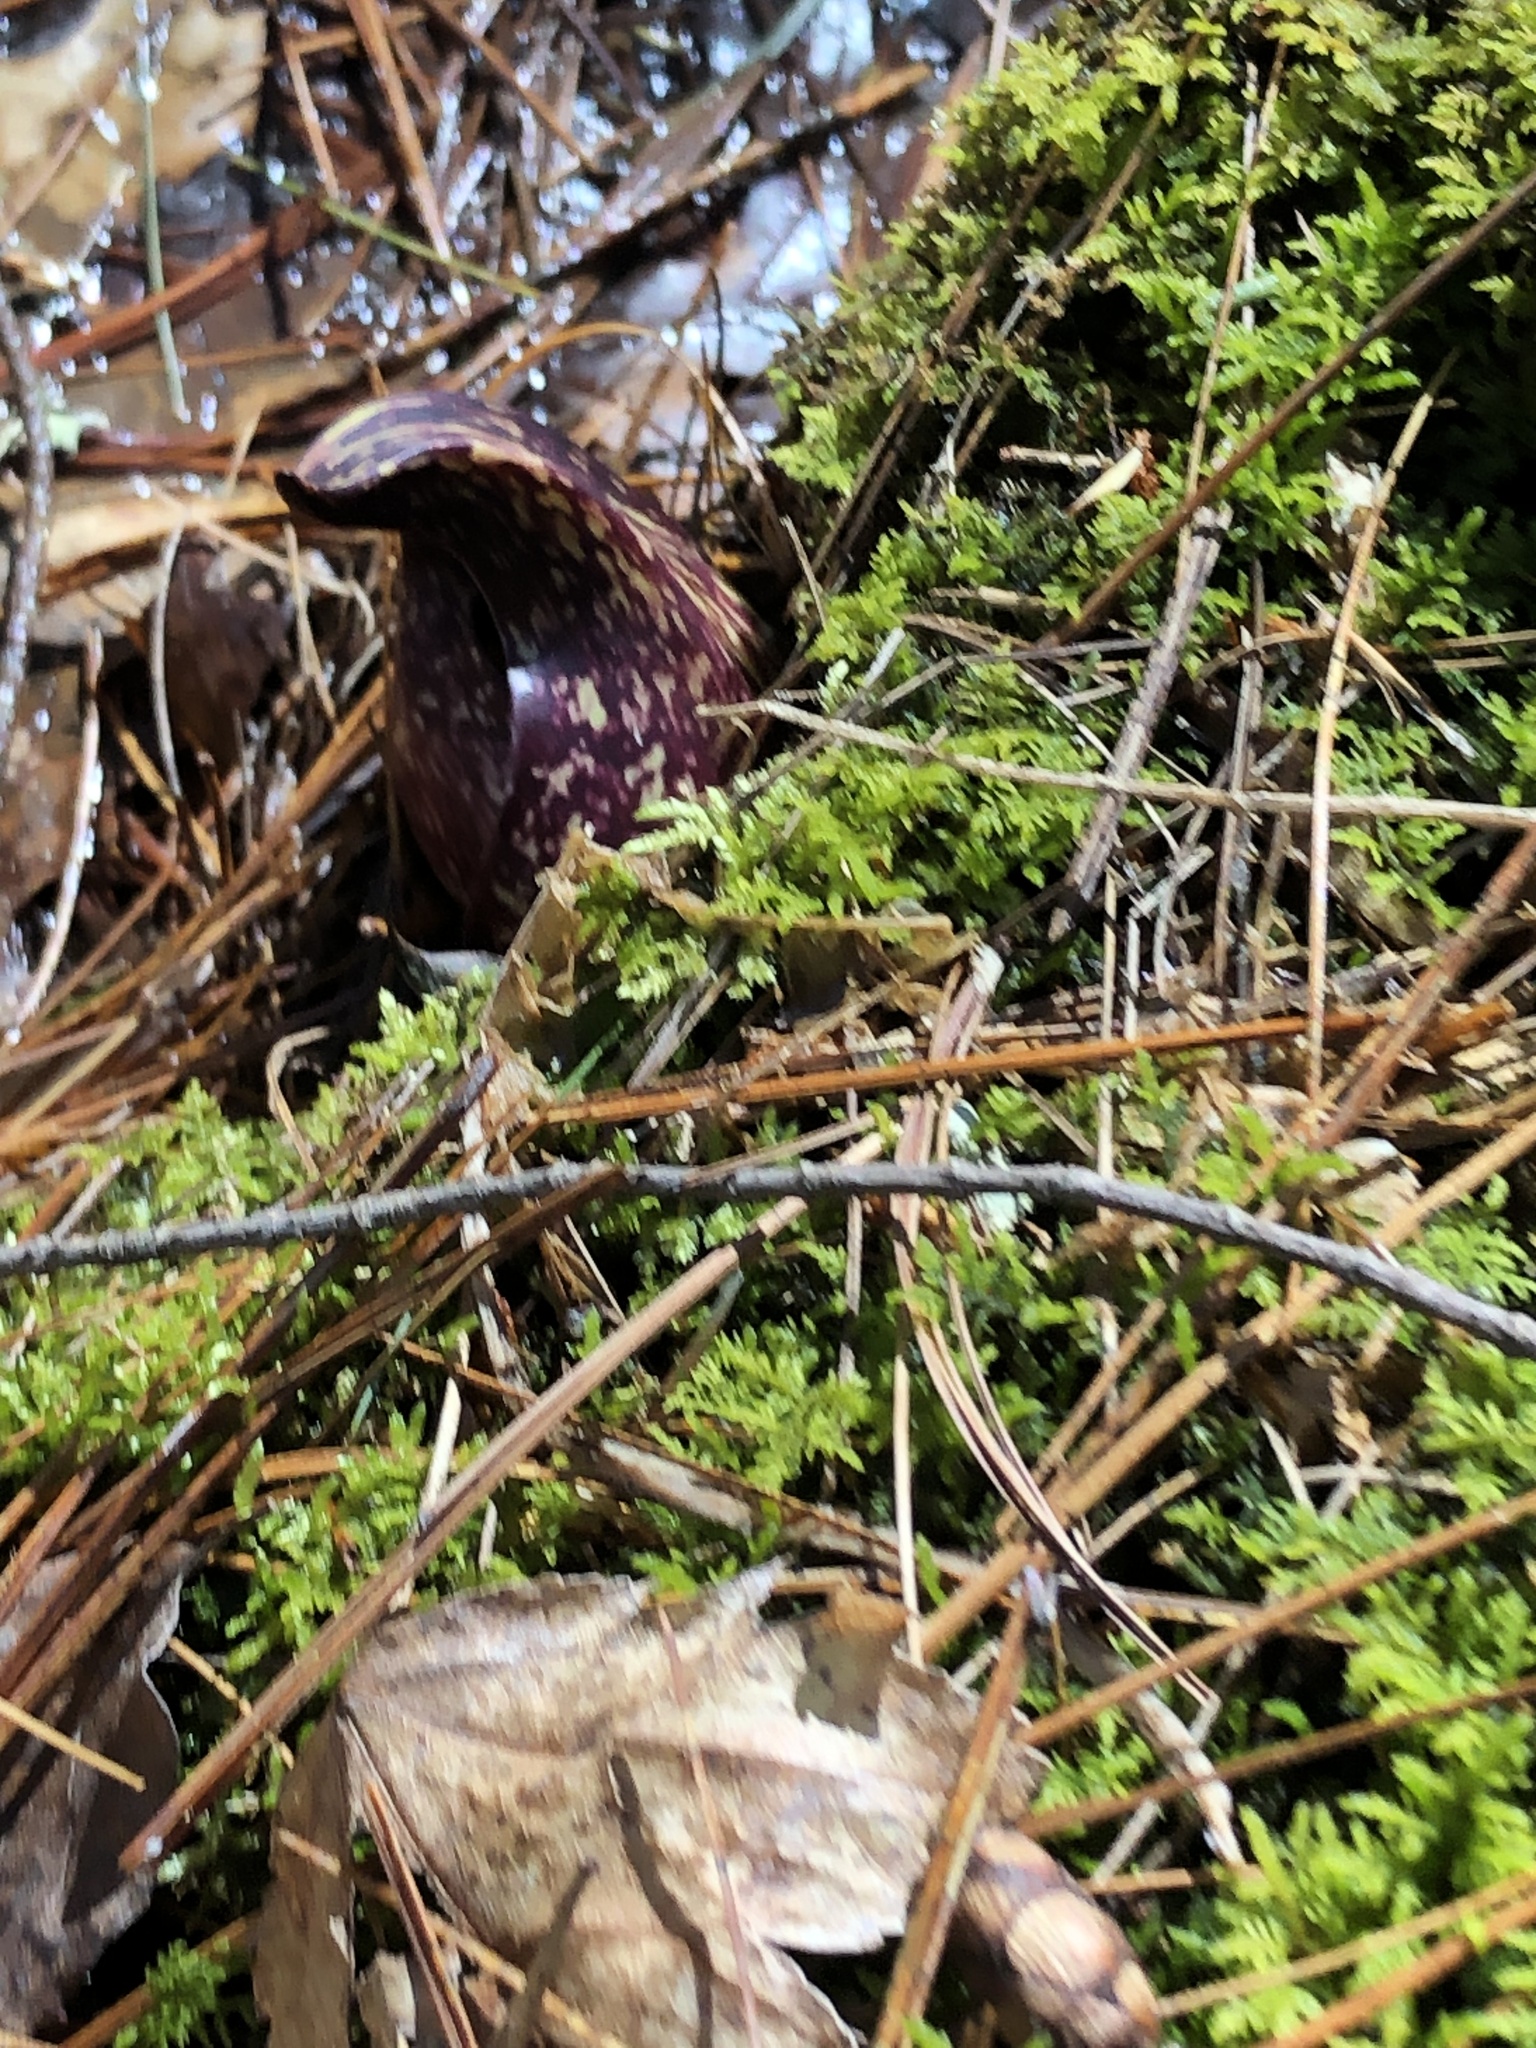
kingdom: Plantae
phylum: Tracheophyta
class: Liliopsida
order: Alismatales
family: Araceae
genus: Symplocarpus
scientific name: Symplocarpus foetidus
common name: Eastern skunk cabbage
